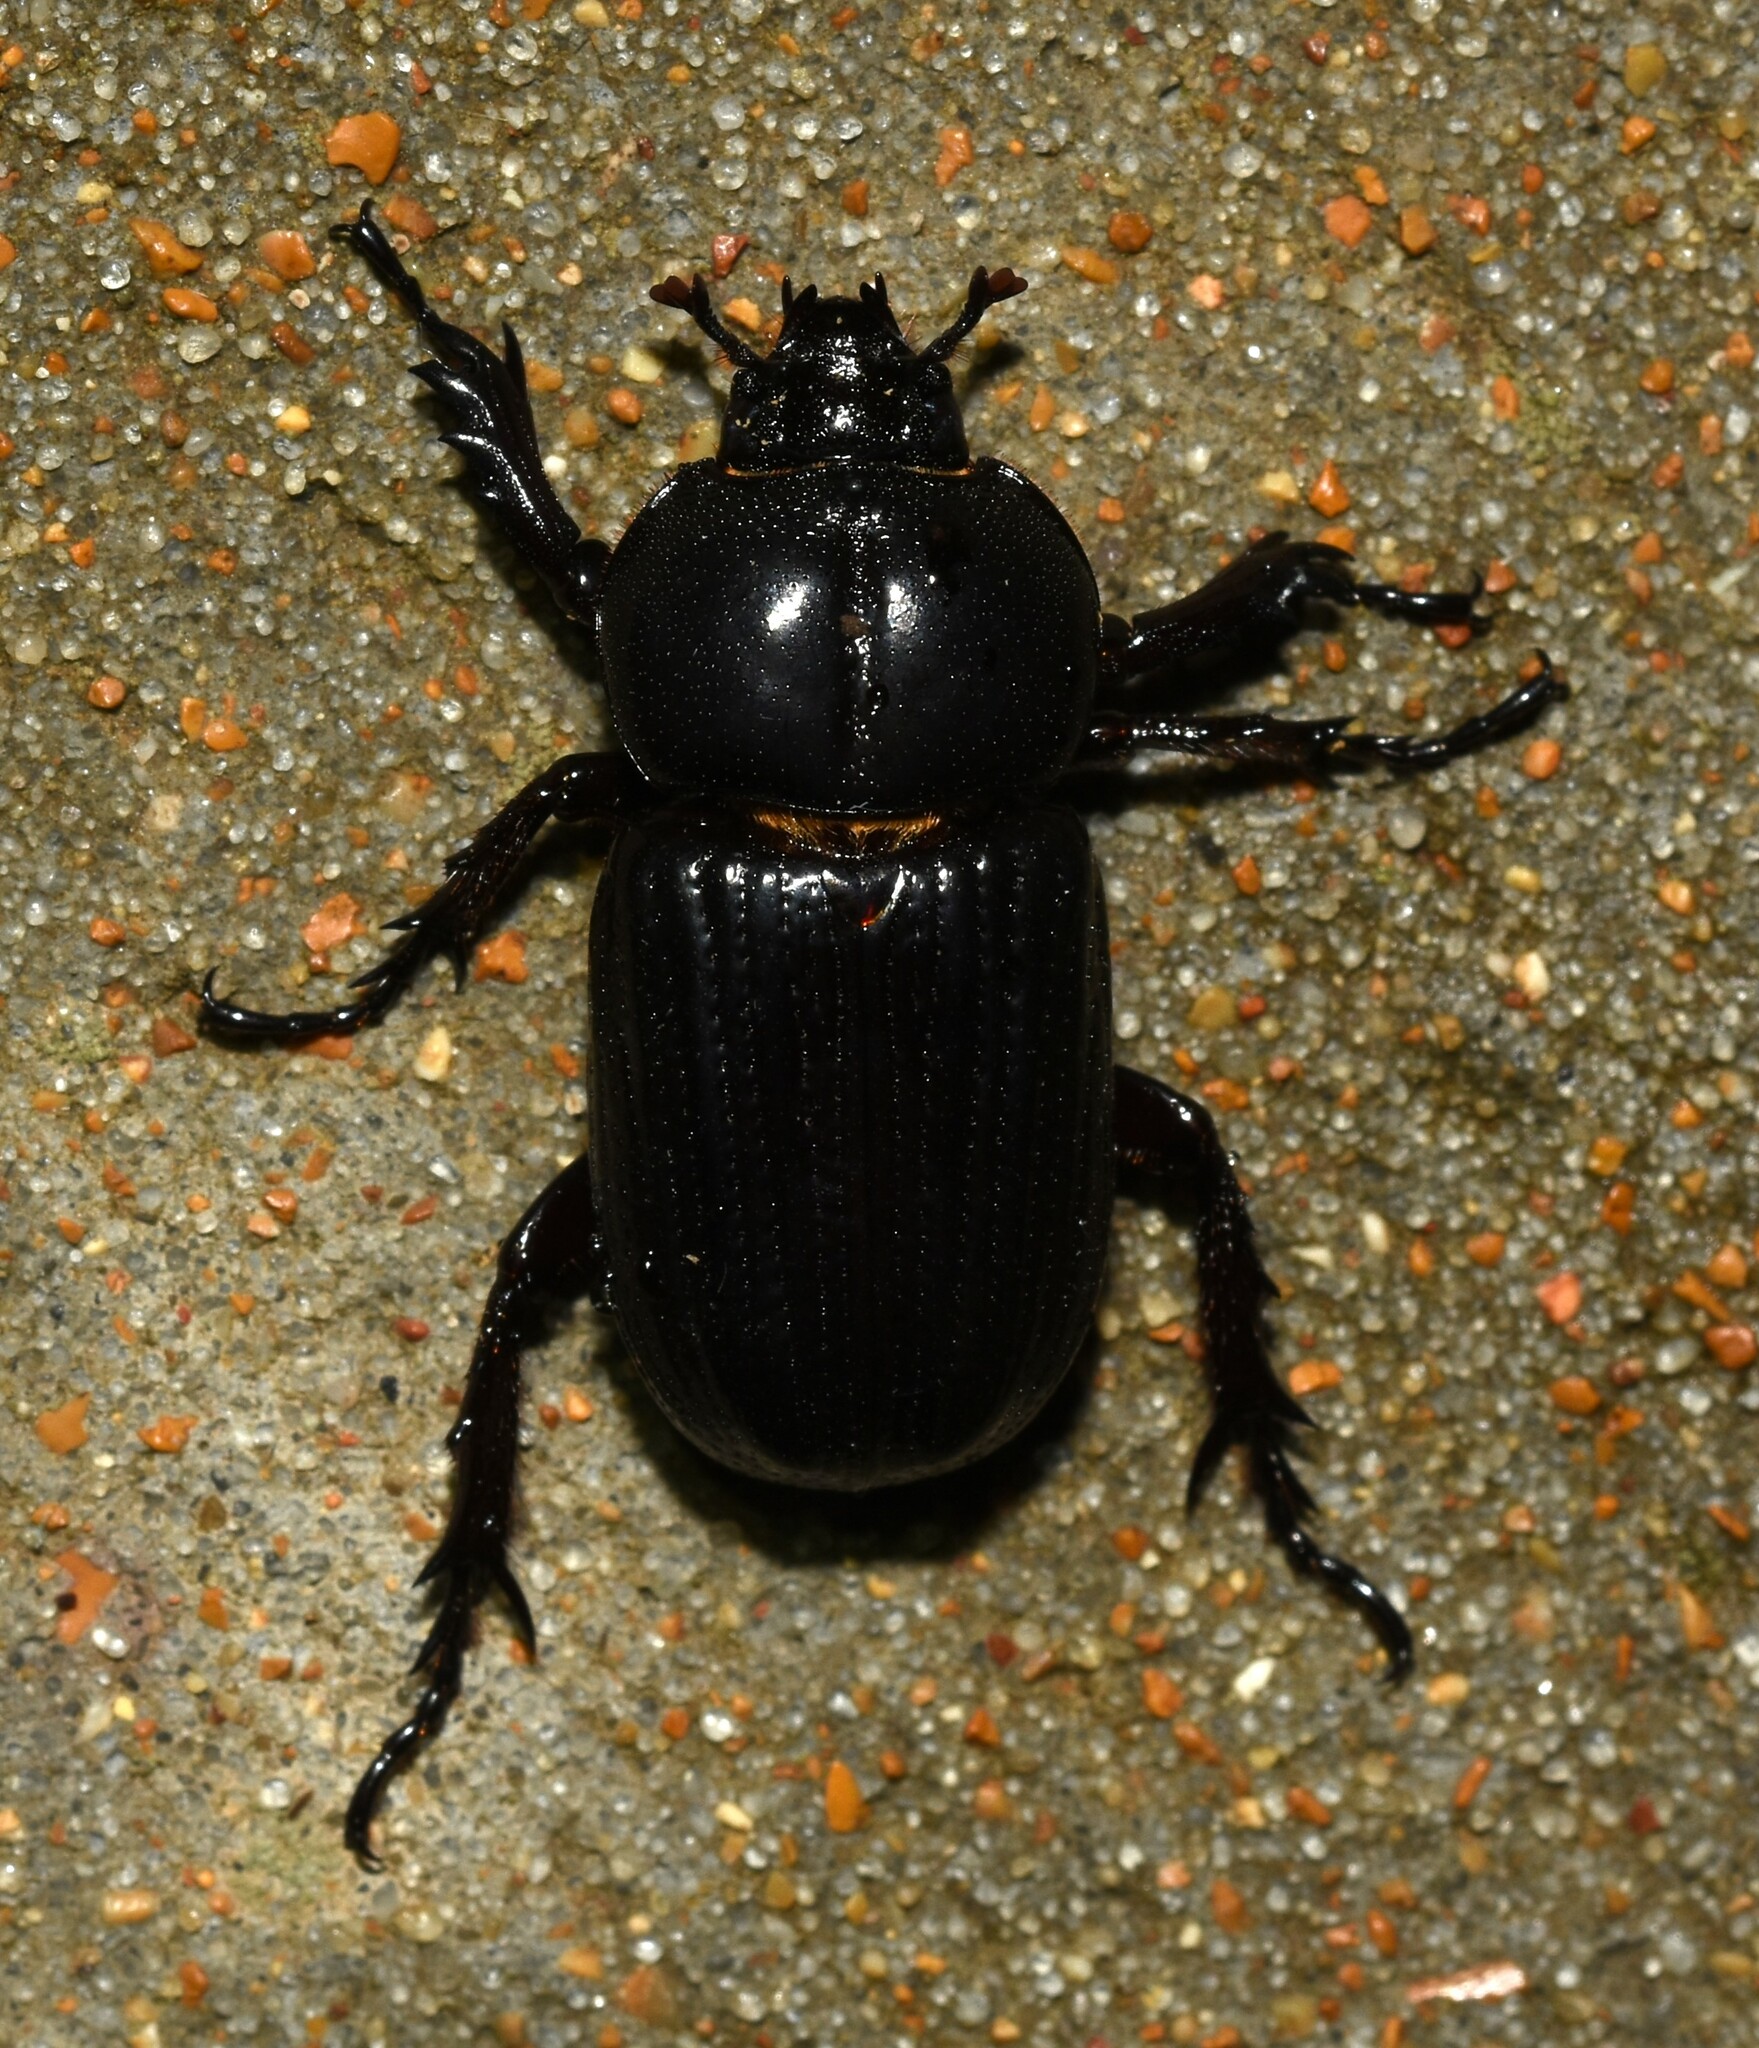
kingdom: Animalia
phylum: Arthropoda
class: Insecta
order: Coleoptera
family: Scarabaeidae
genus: Phileurus
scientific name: Phileurus valgus
